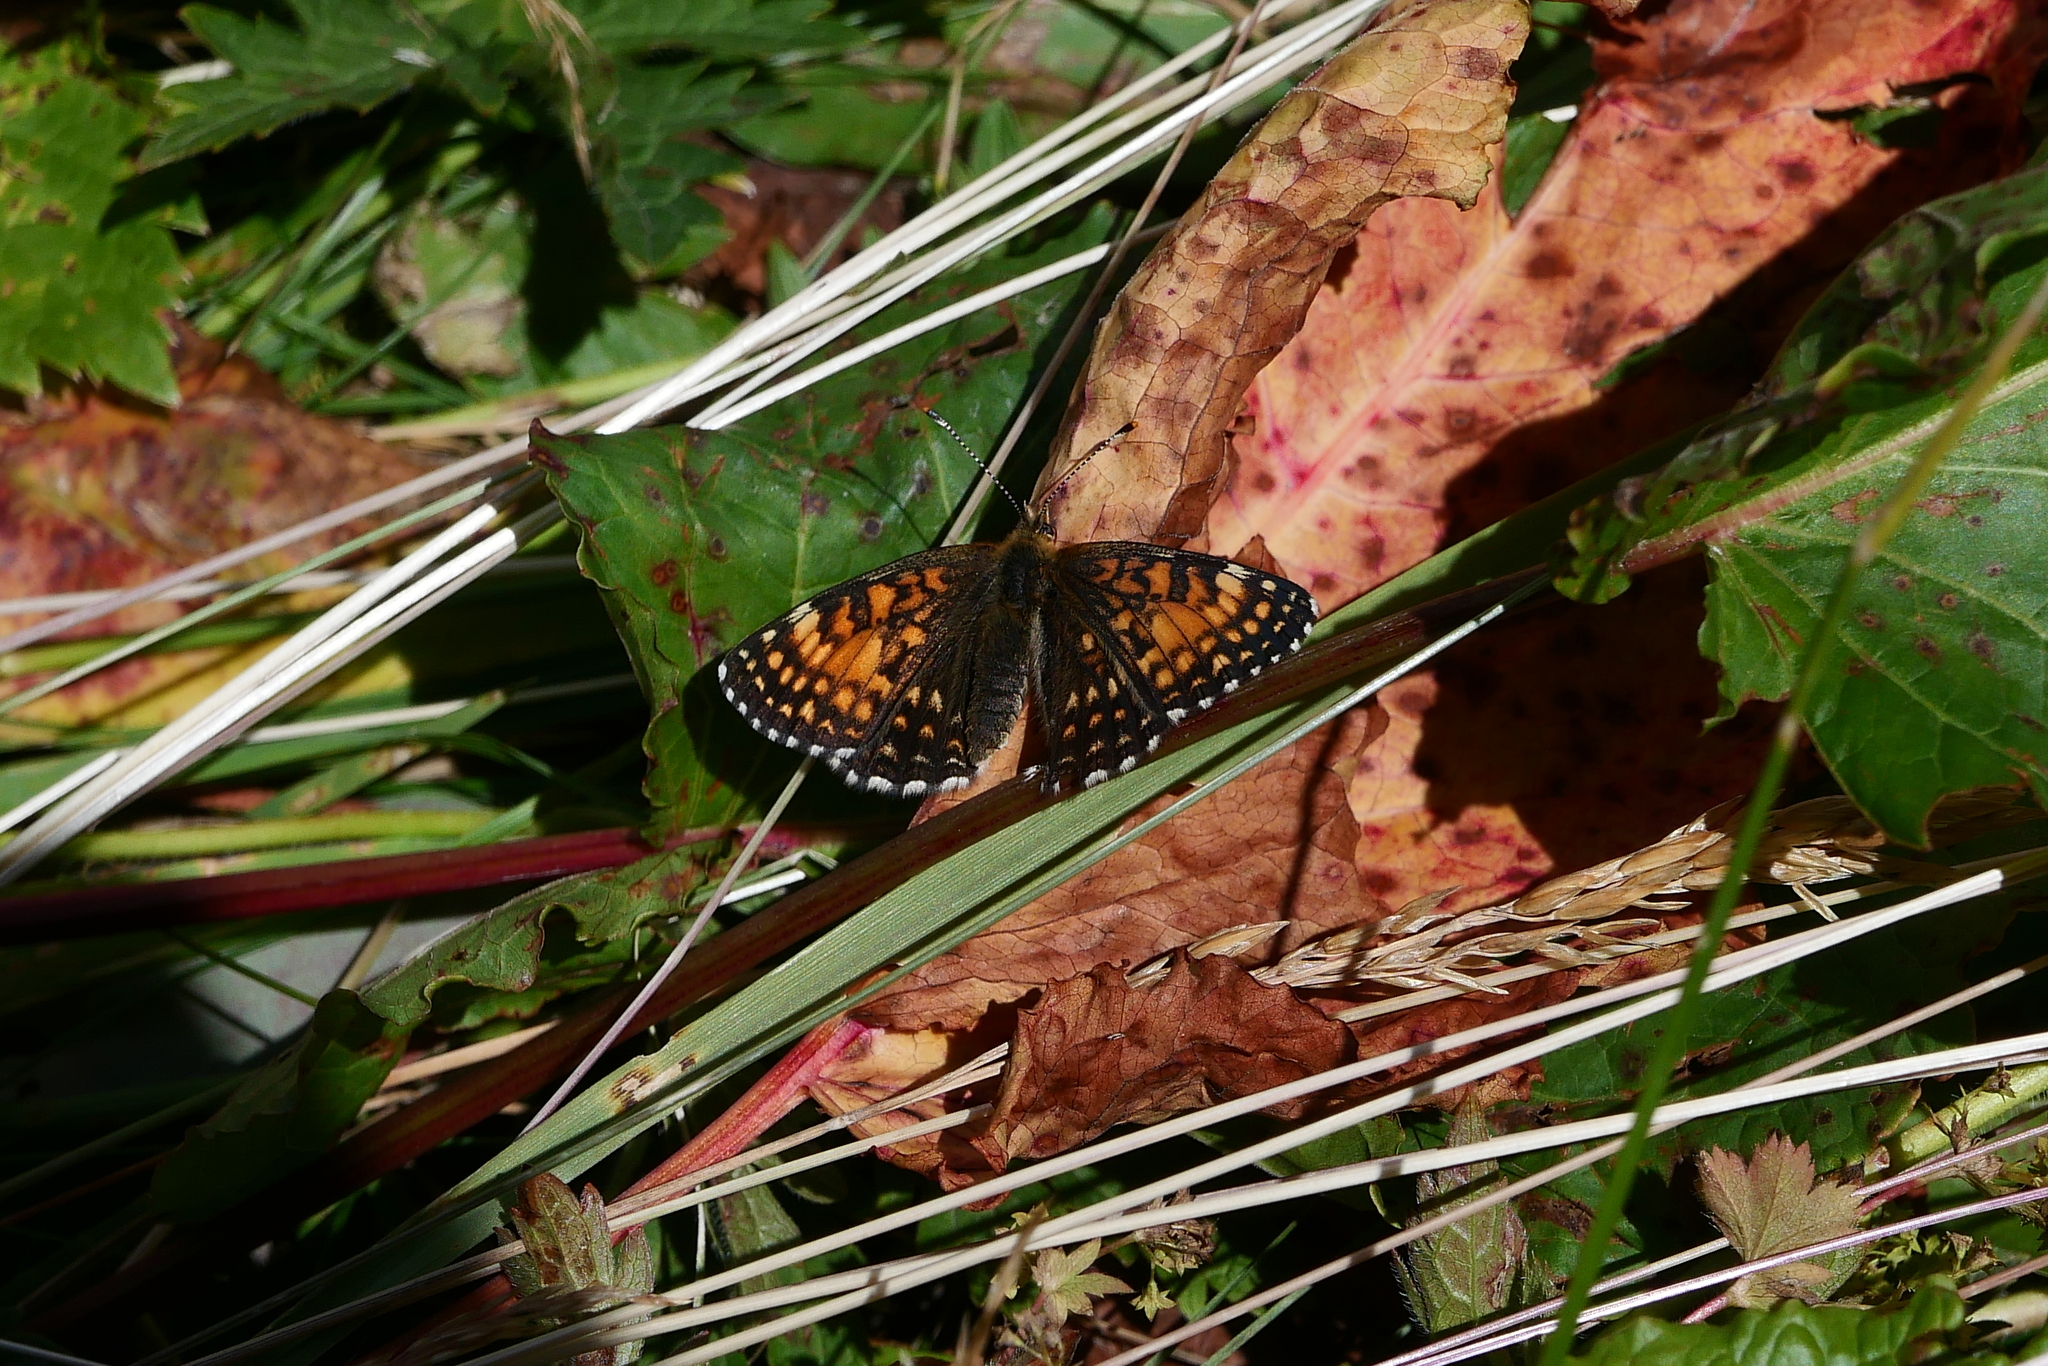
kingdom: Animalia
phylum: Arthropoda
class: Insecta
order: Lepidoptera
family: Nymphalidae
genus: Melitaea
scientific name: Melitaea diamina
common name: False heath fritillary
